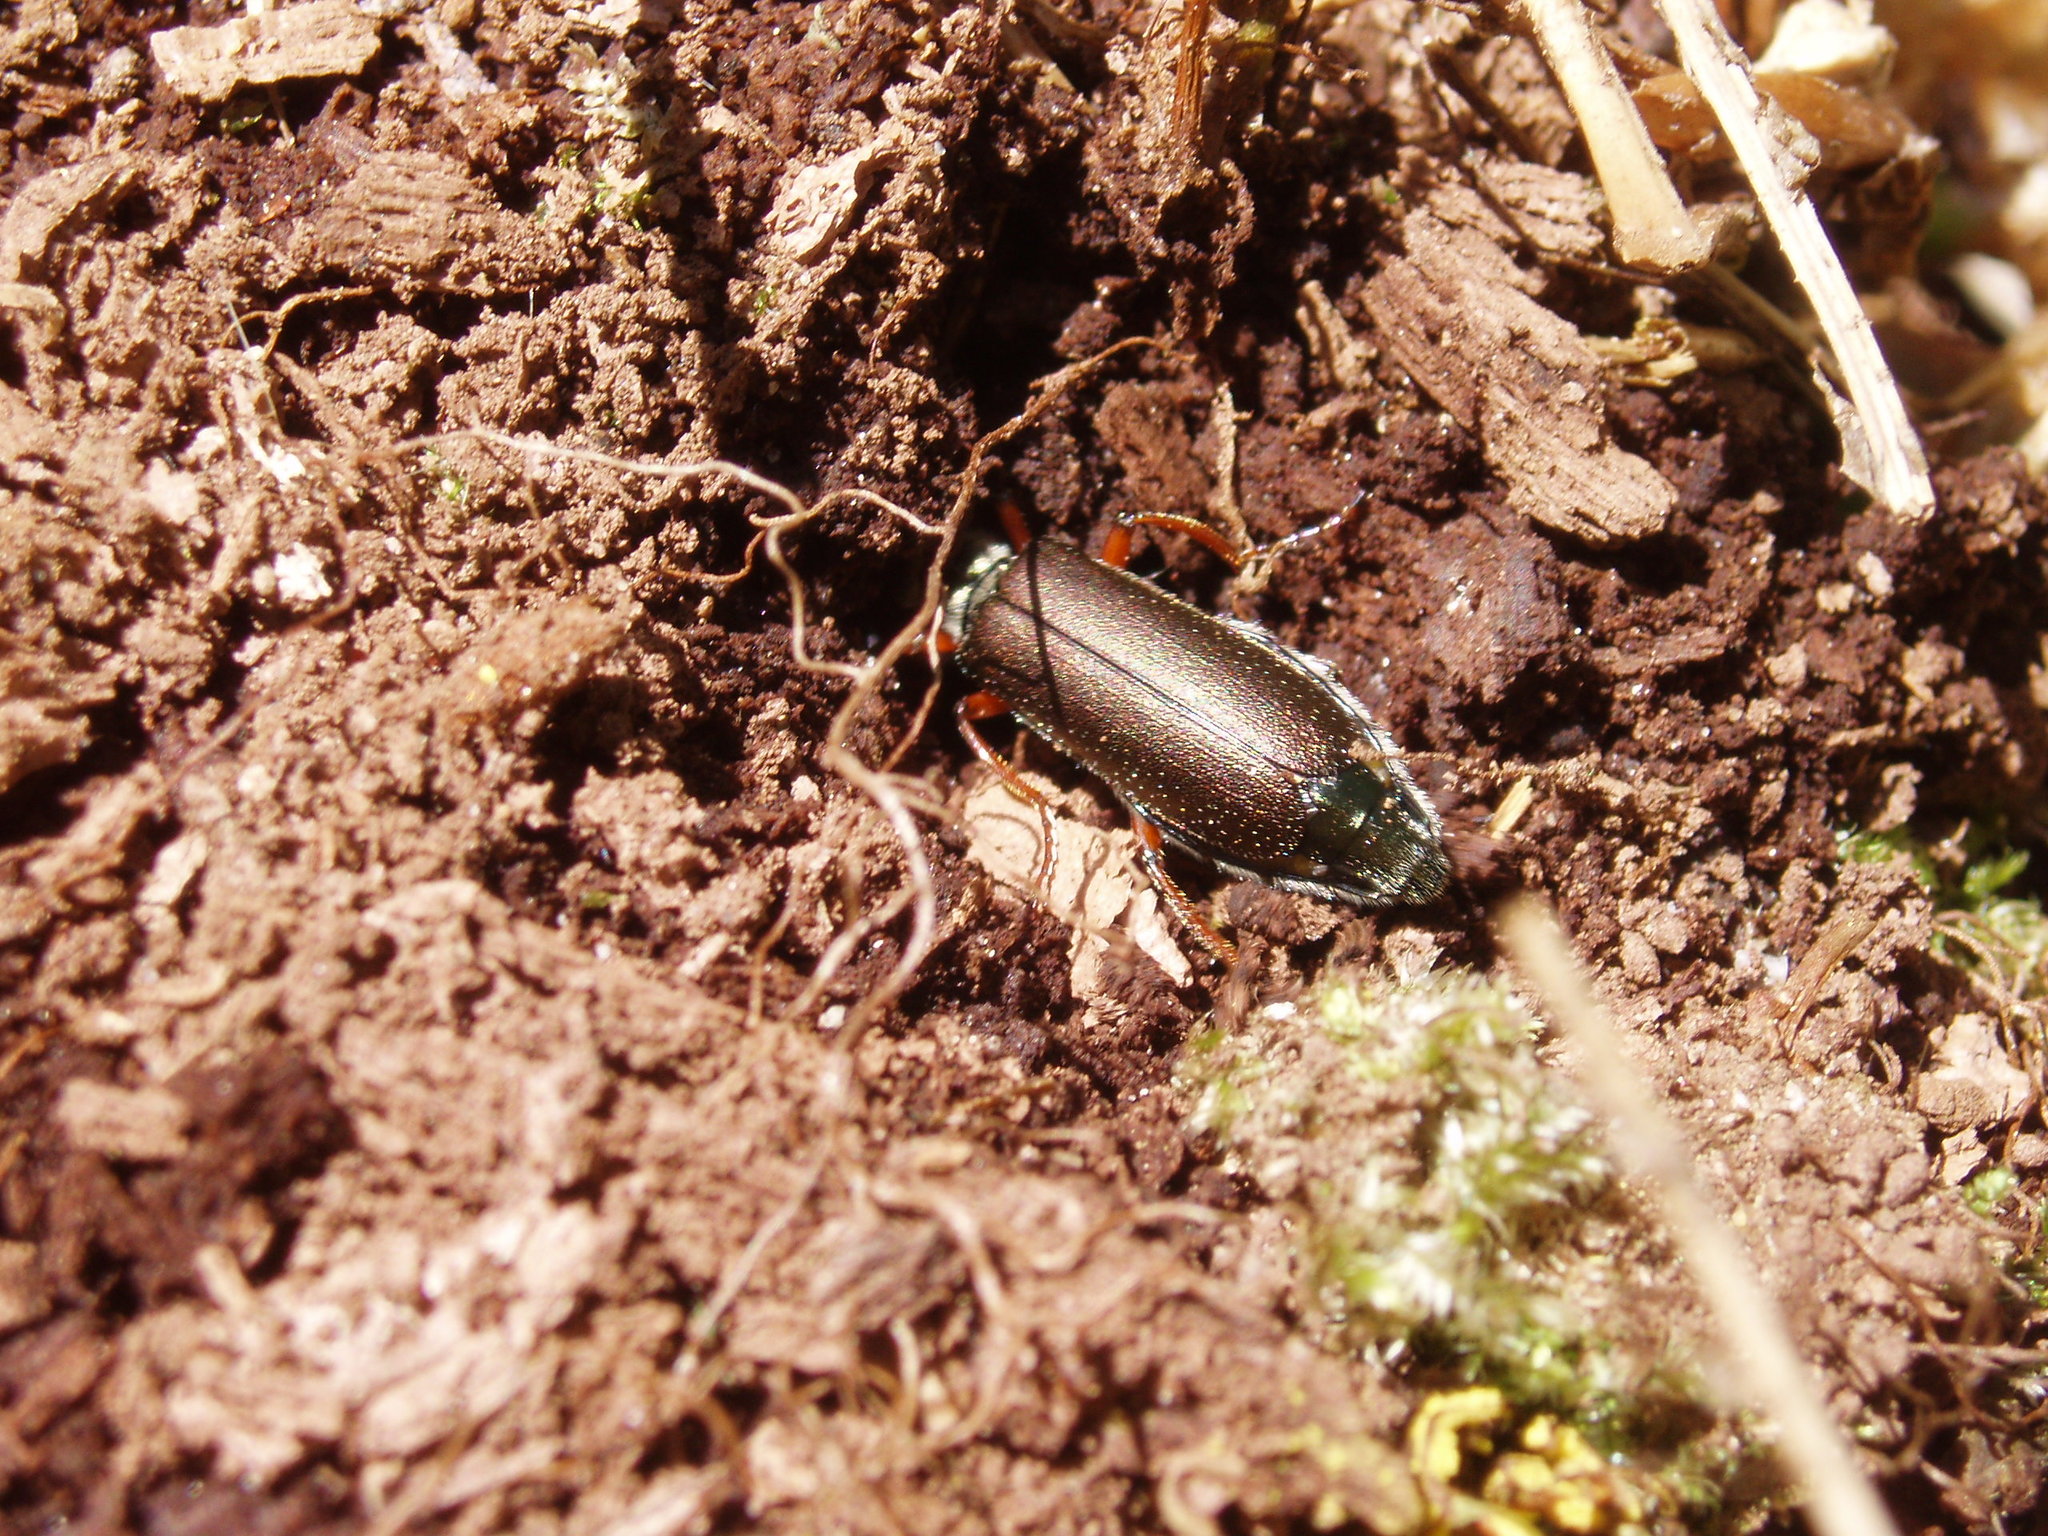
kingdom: Animalia
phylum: Arthropoda
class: Insecta
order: Coleoptera
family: Meloidae
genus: Lytta
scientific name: Lytta aenea
